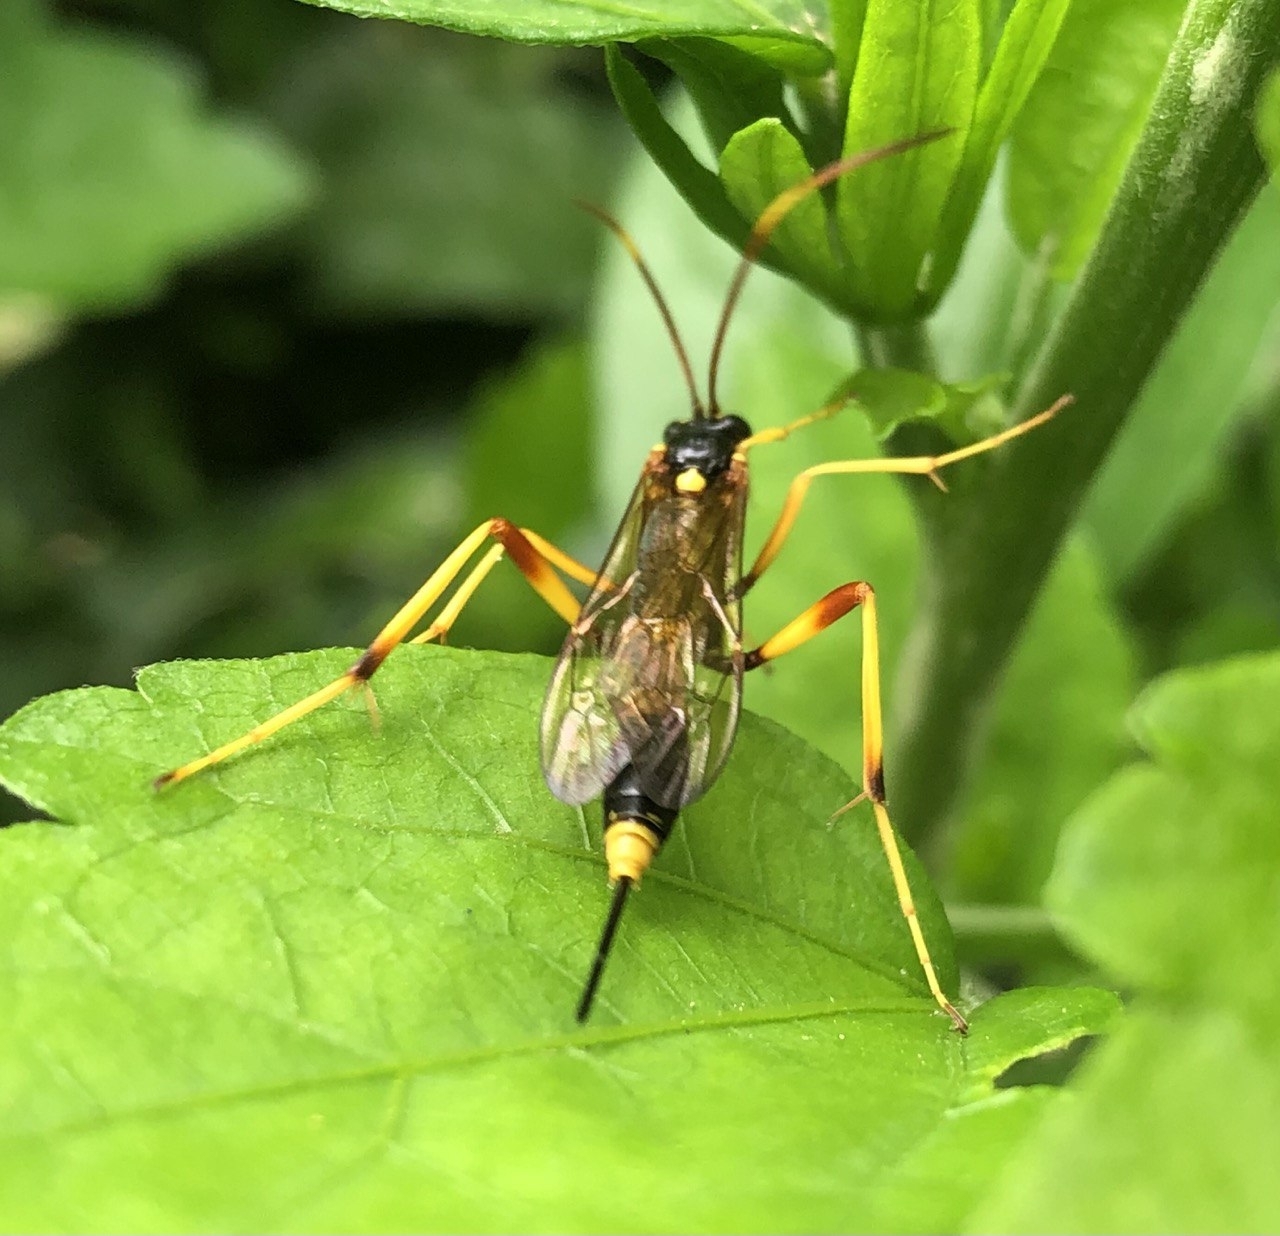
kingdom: Animalia
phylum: Arthropoda
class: Insecta
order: Hymenoptera
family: Ichneumonidae
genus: Acroricnus
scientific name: Acroricnus seductor
